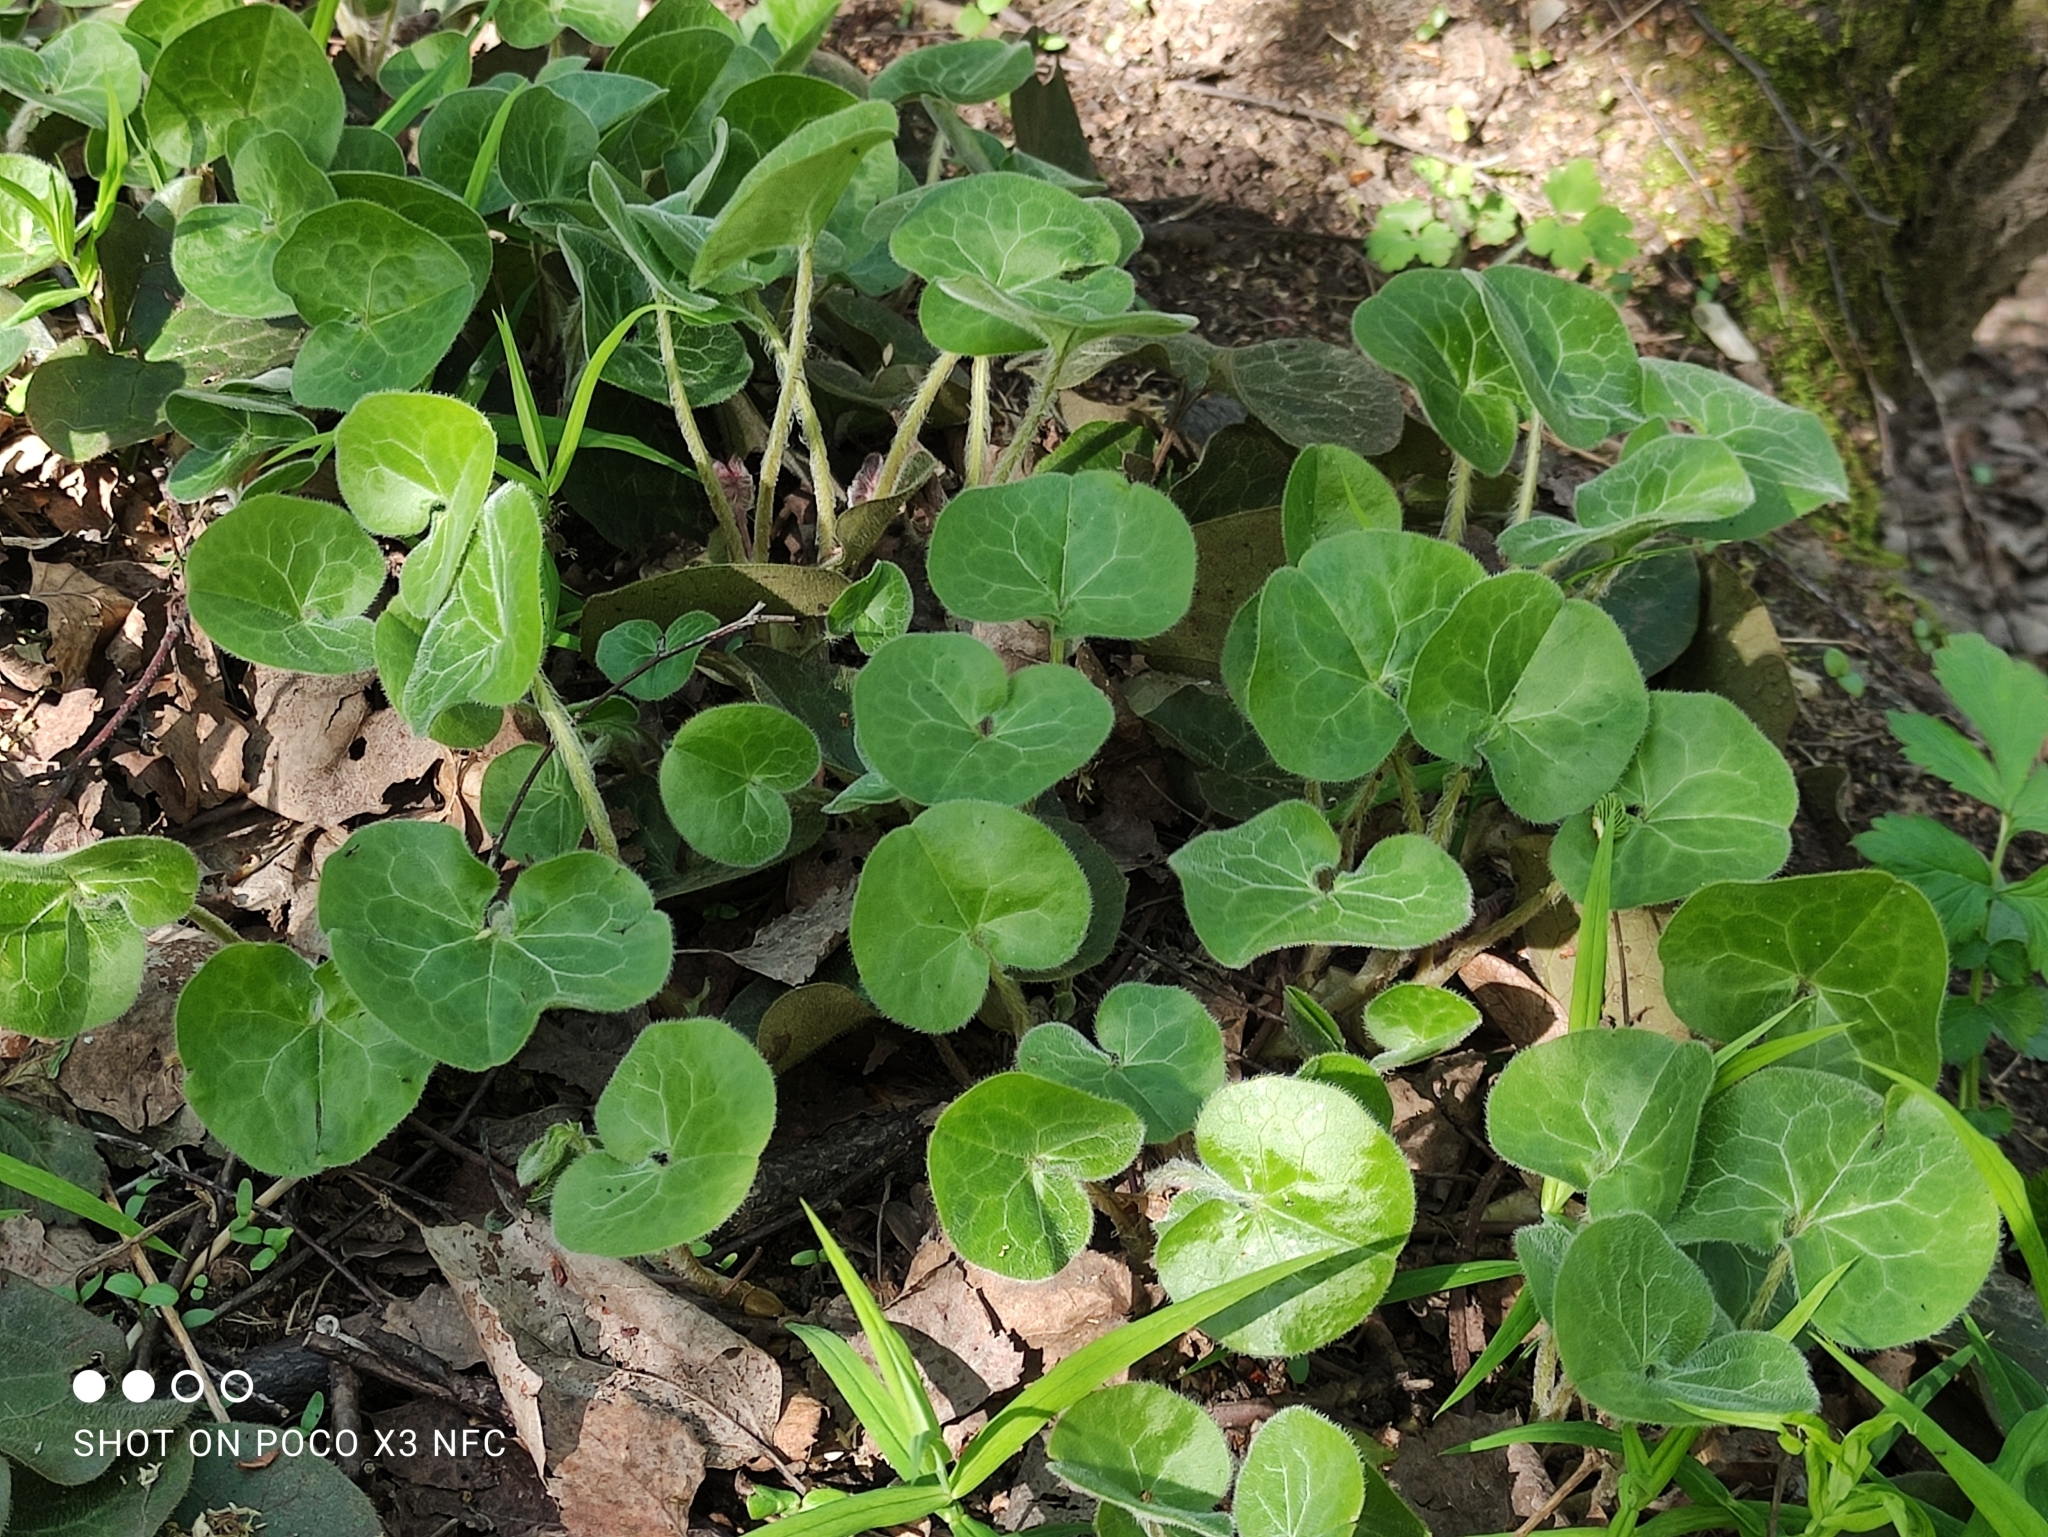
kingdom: Plantae
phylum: Tracheophyta
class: Magnoliopsida
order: Piperales
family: Aristolochiaceae
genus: Asarum
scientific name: Asarum europaeum
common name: Asarabacca
